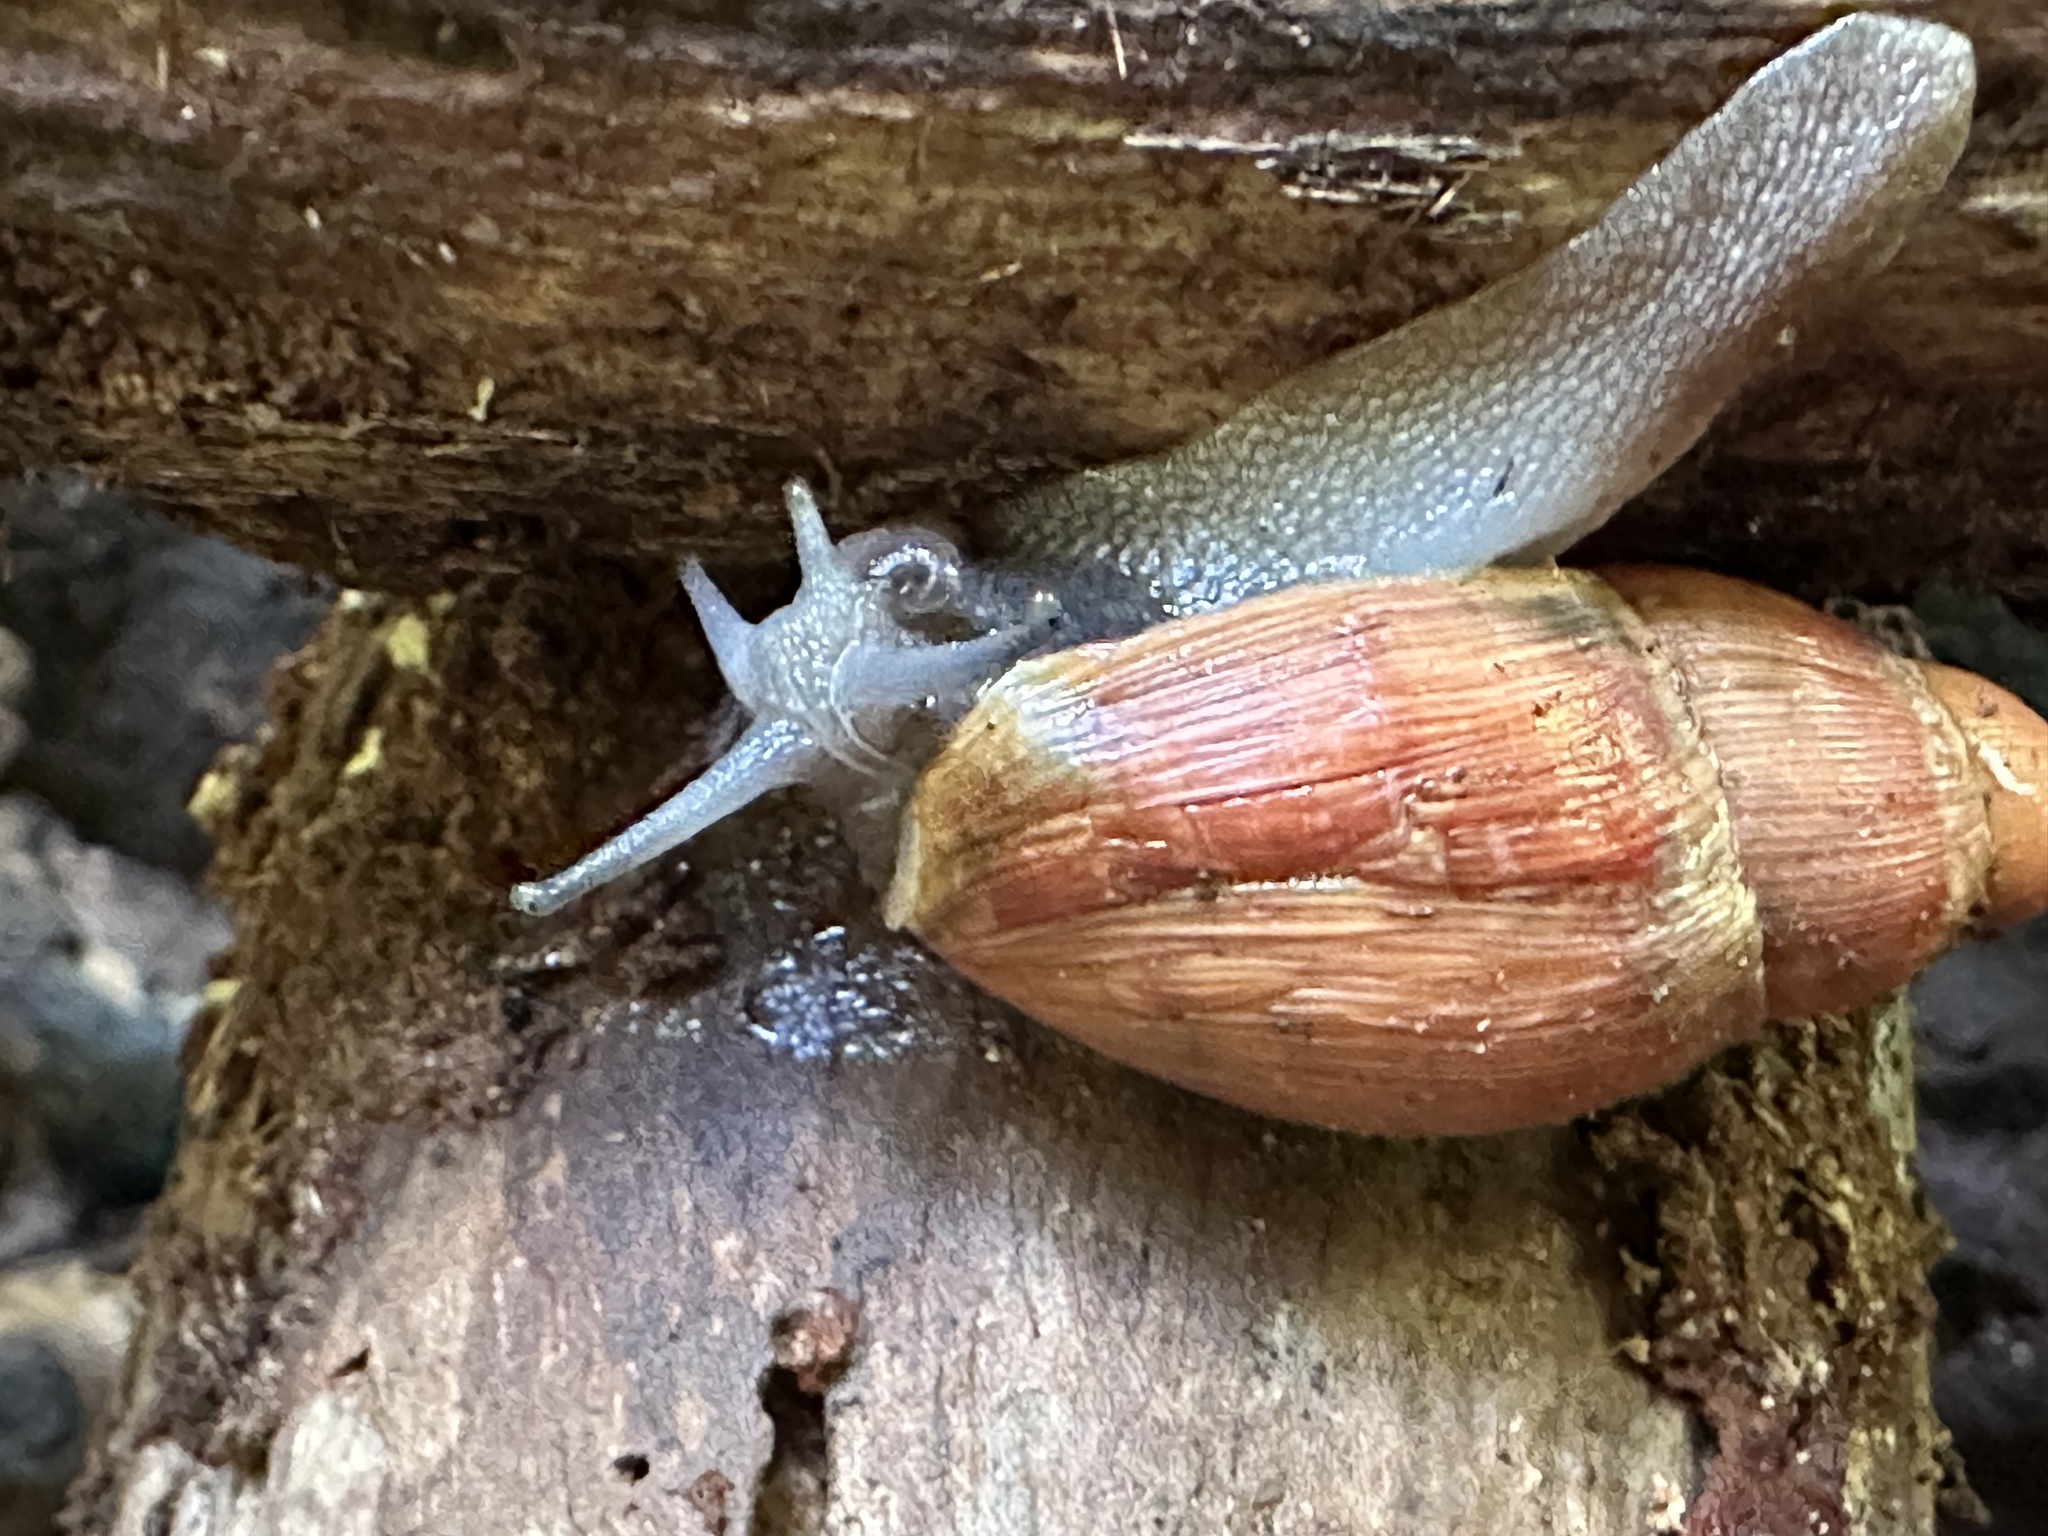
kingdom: Animalia
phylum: Mollusca
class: Gastropoda
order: Stylommatophora
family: Spiraxidae
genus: Euglandina
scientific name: Euglandina rosea
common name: Rosy wolfsnail
